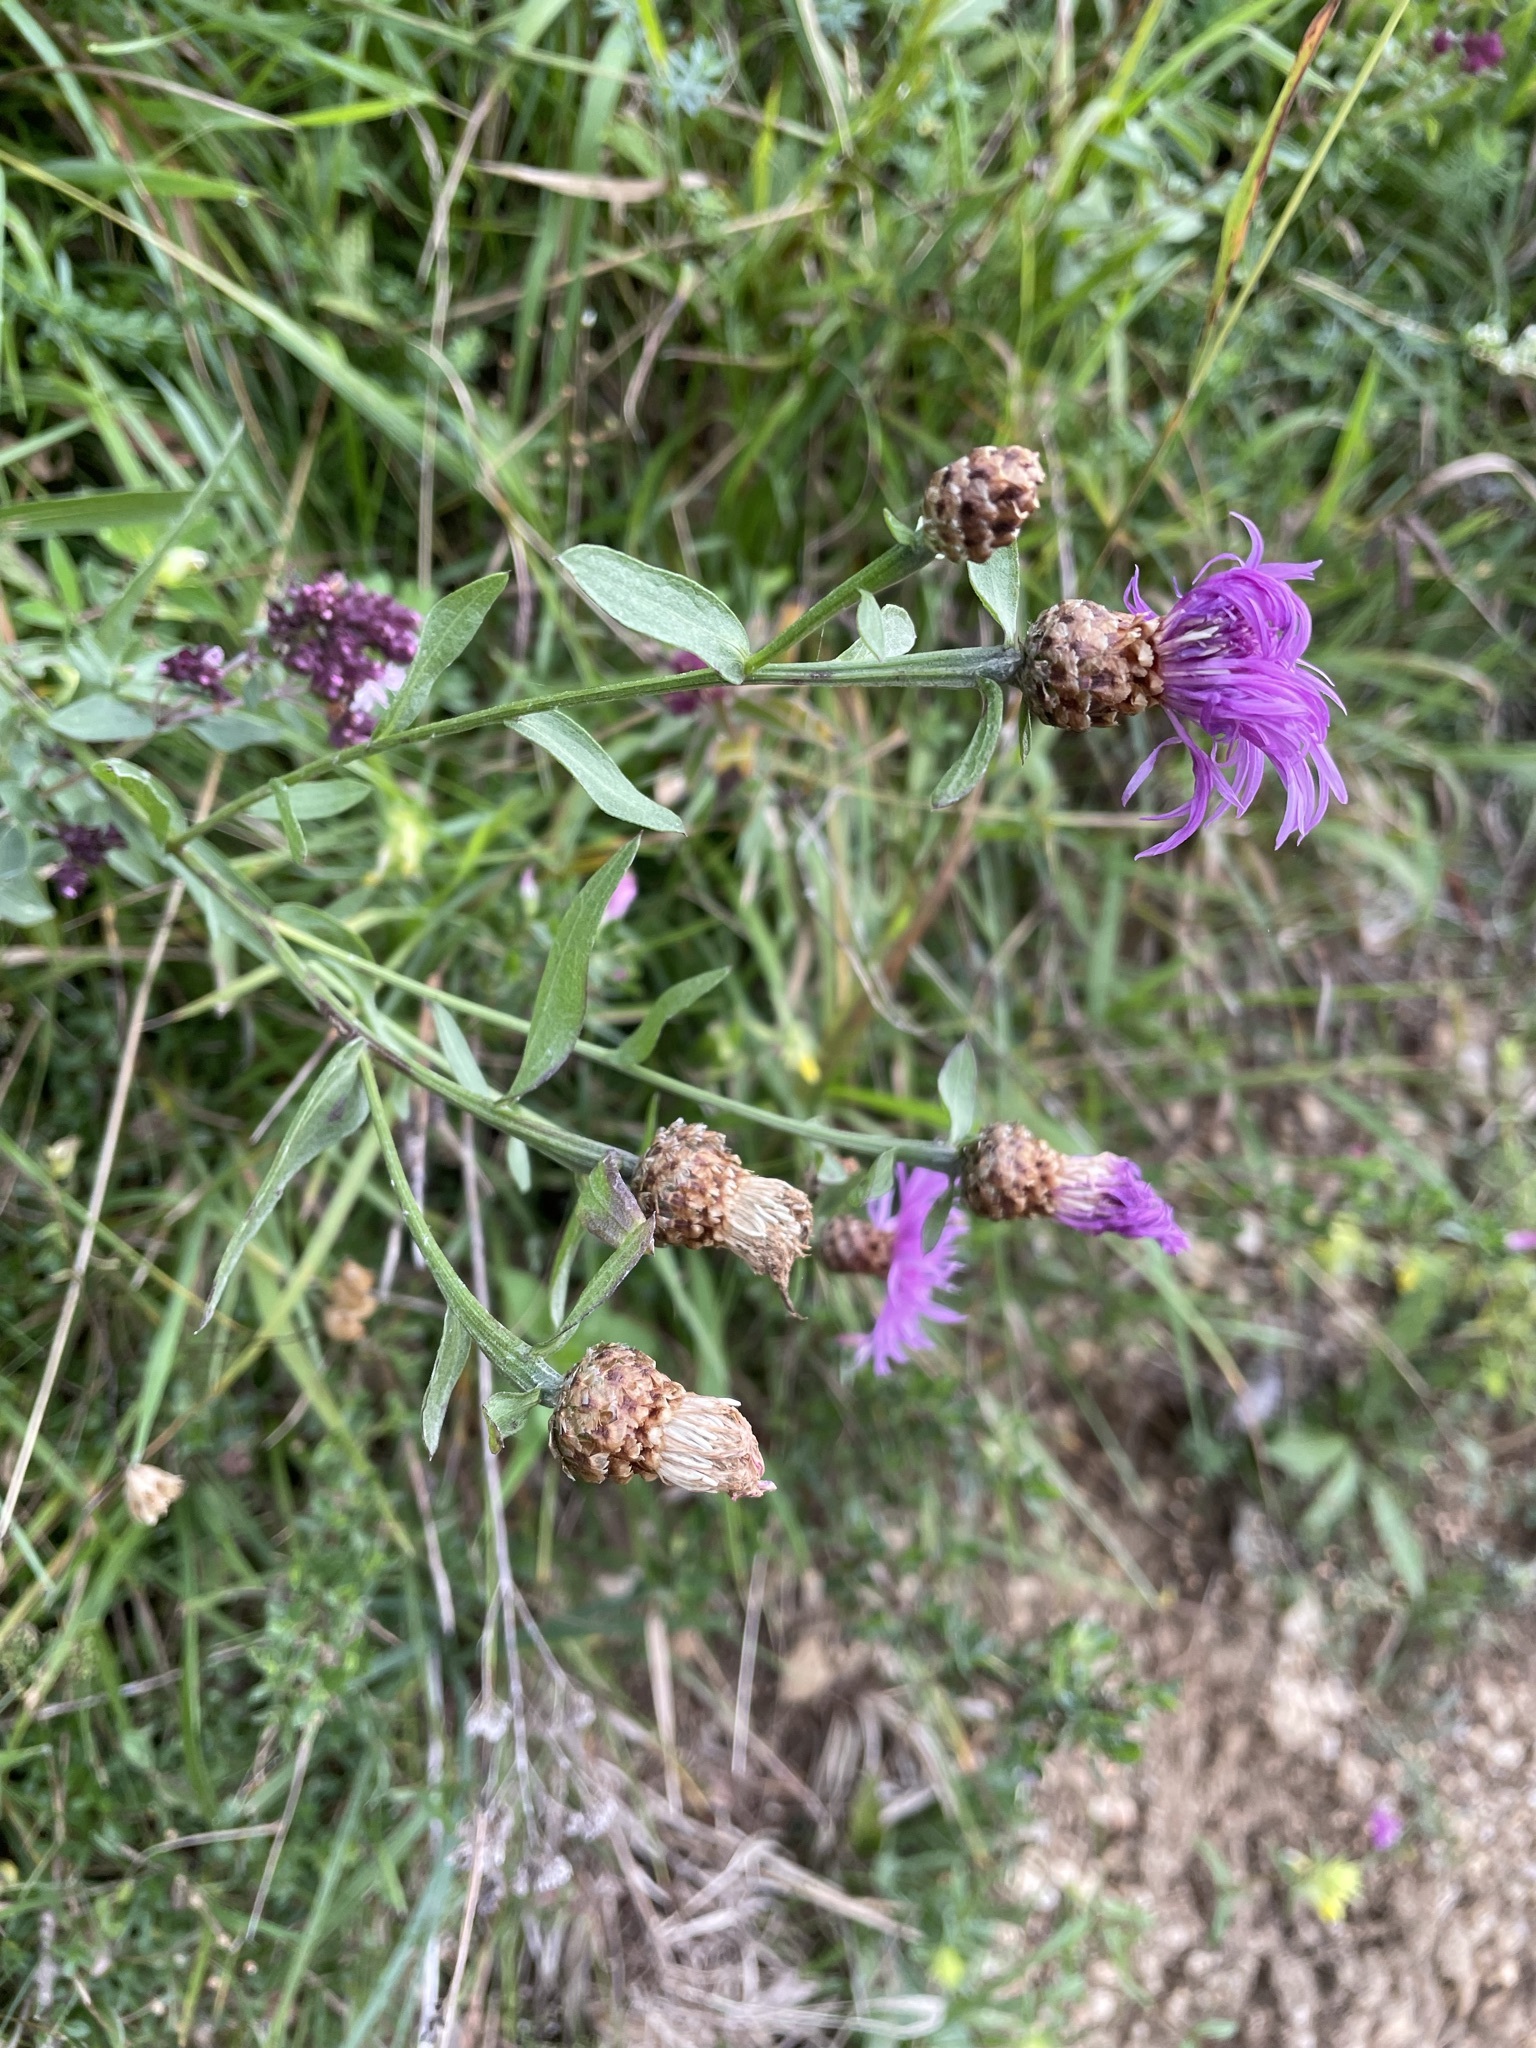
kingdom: Plantae
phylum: Tracheophyta
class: Magnoliopsida
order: Asterales
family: Asteraceae
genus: Centaurea
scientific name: Centaurea jacea
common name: Brown knapweed
